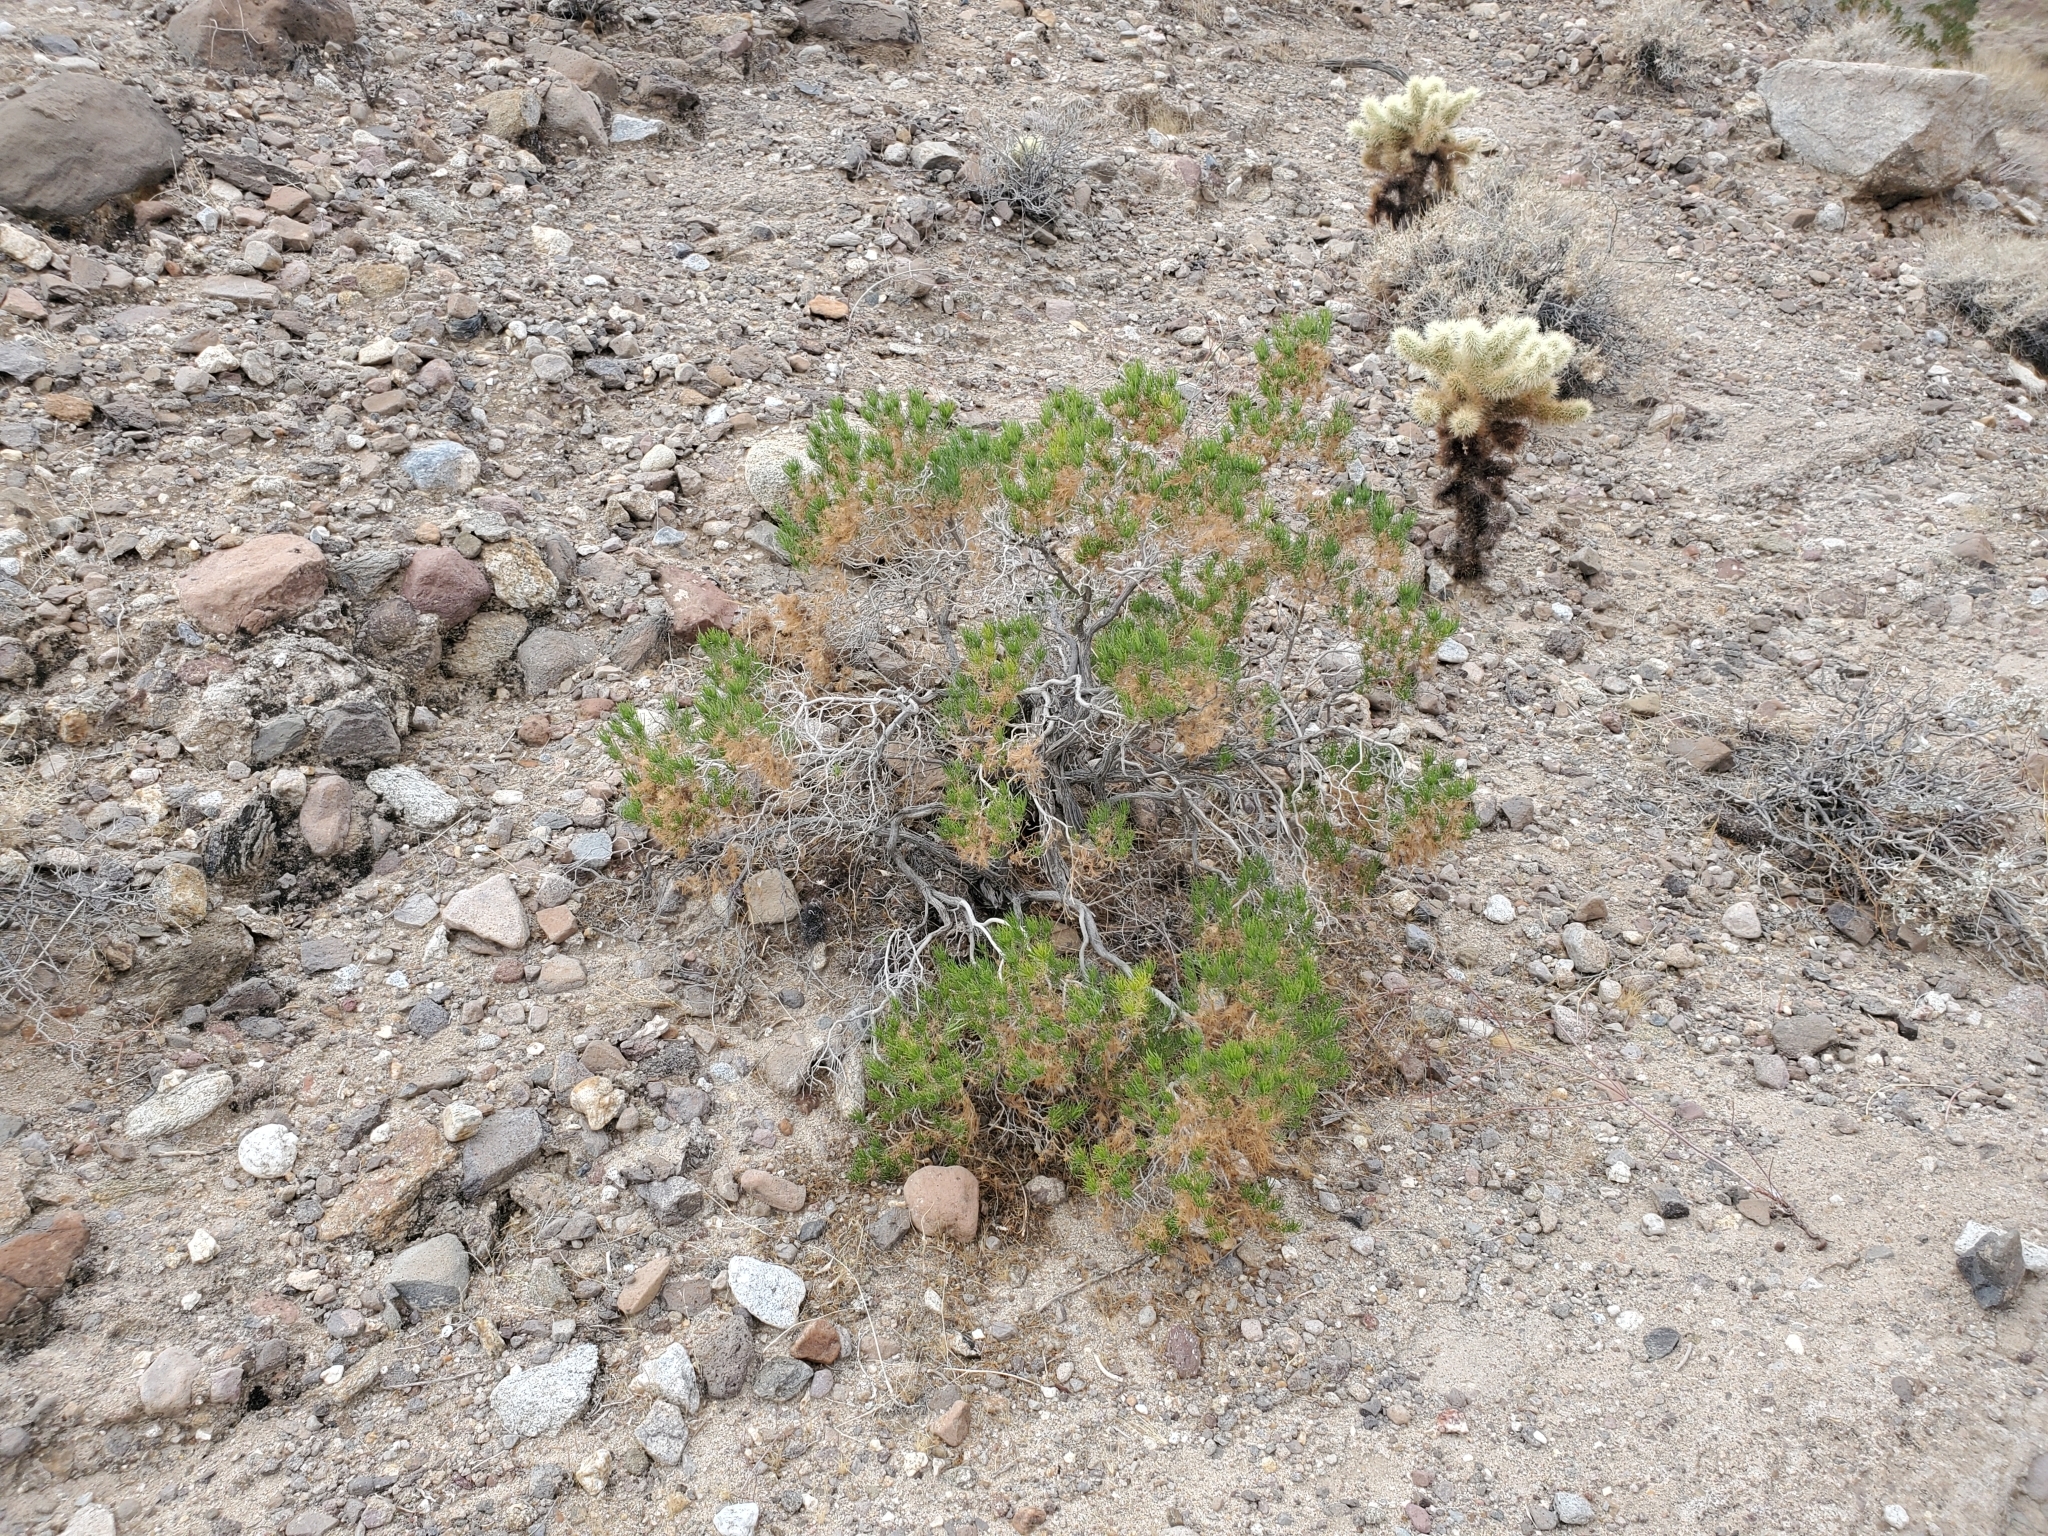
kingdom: Plantae
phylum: Tracheophyta
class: Magnoliopsida
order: Asterales
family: Asteraceae
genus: Peucephyllum
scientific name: Peucephyllum schottii
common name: Pygmy-cedar
